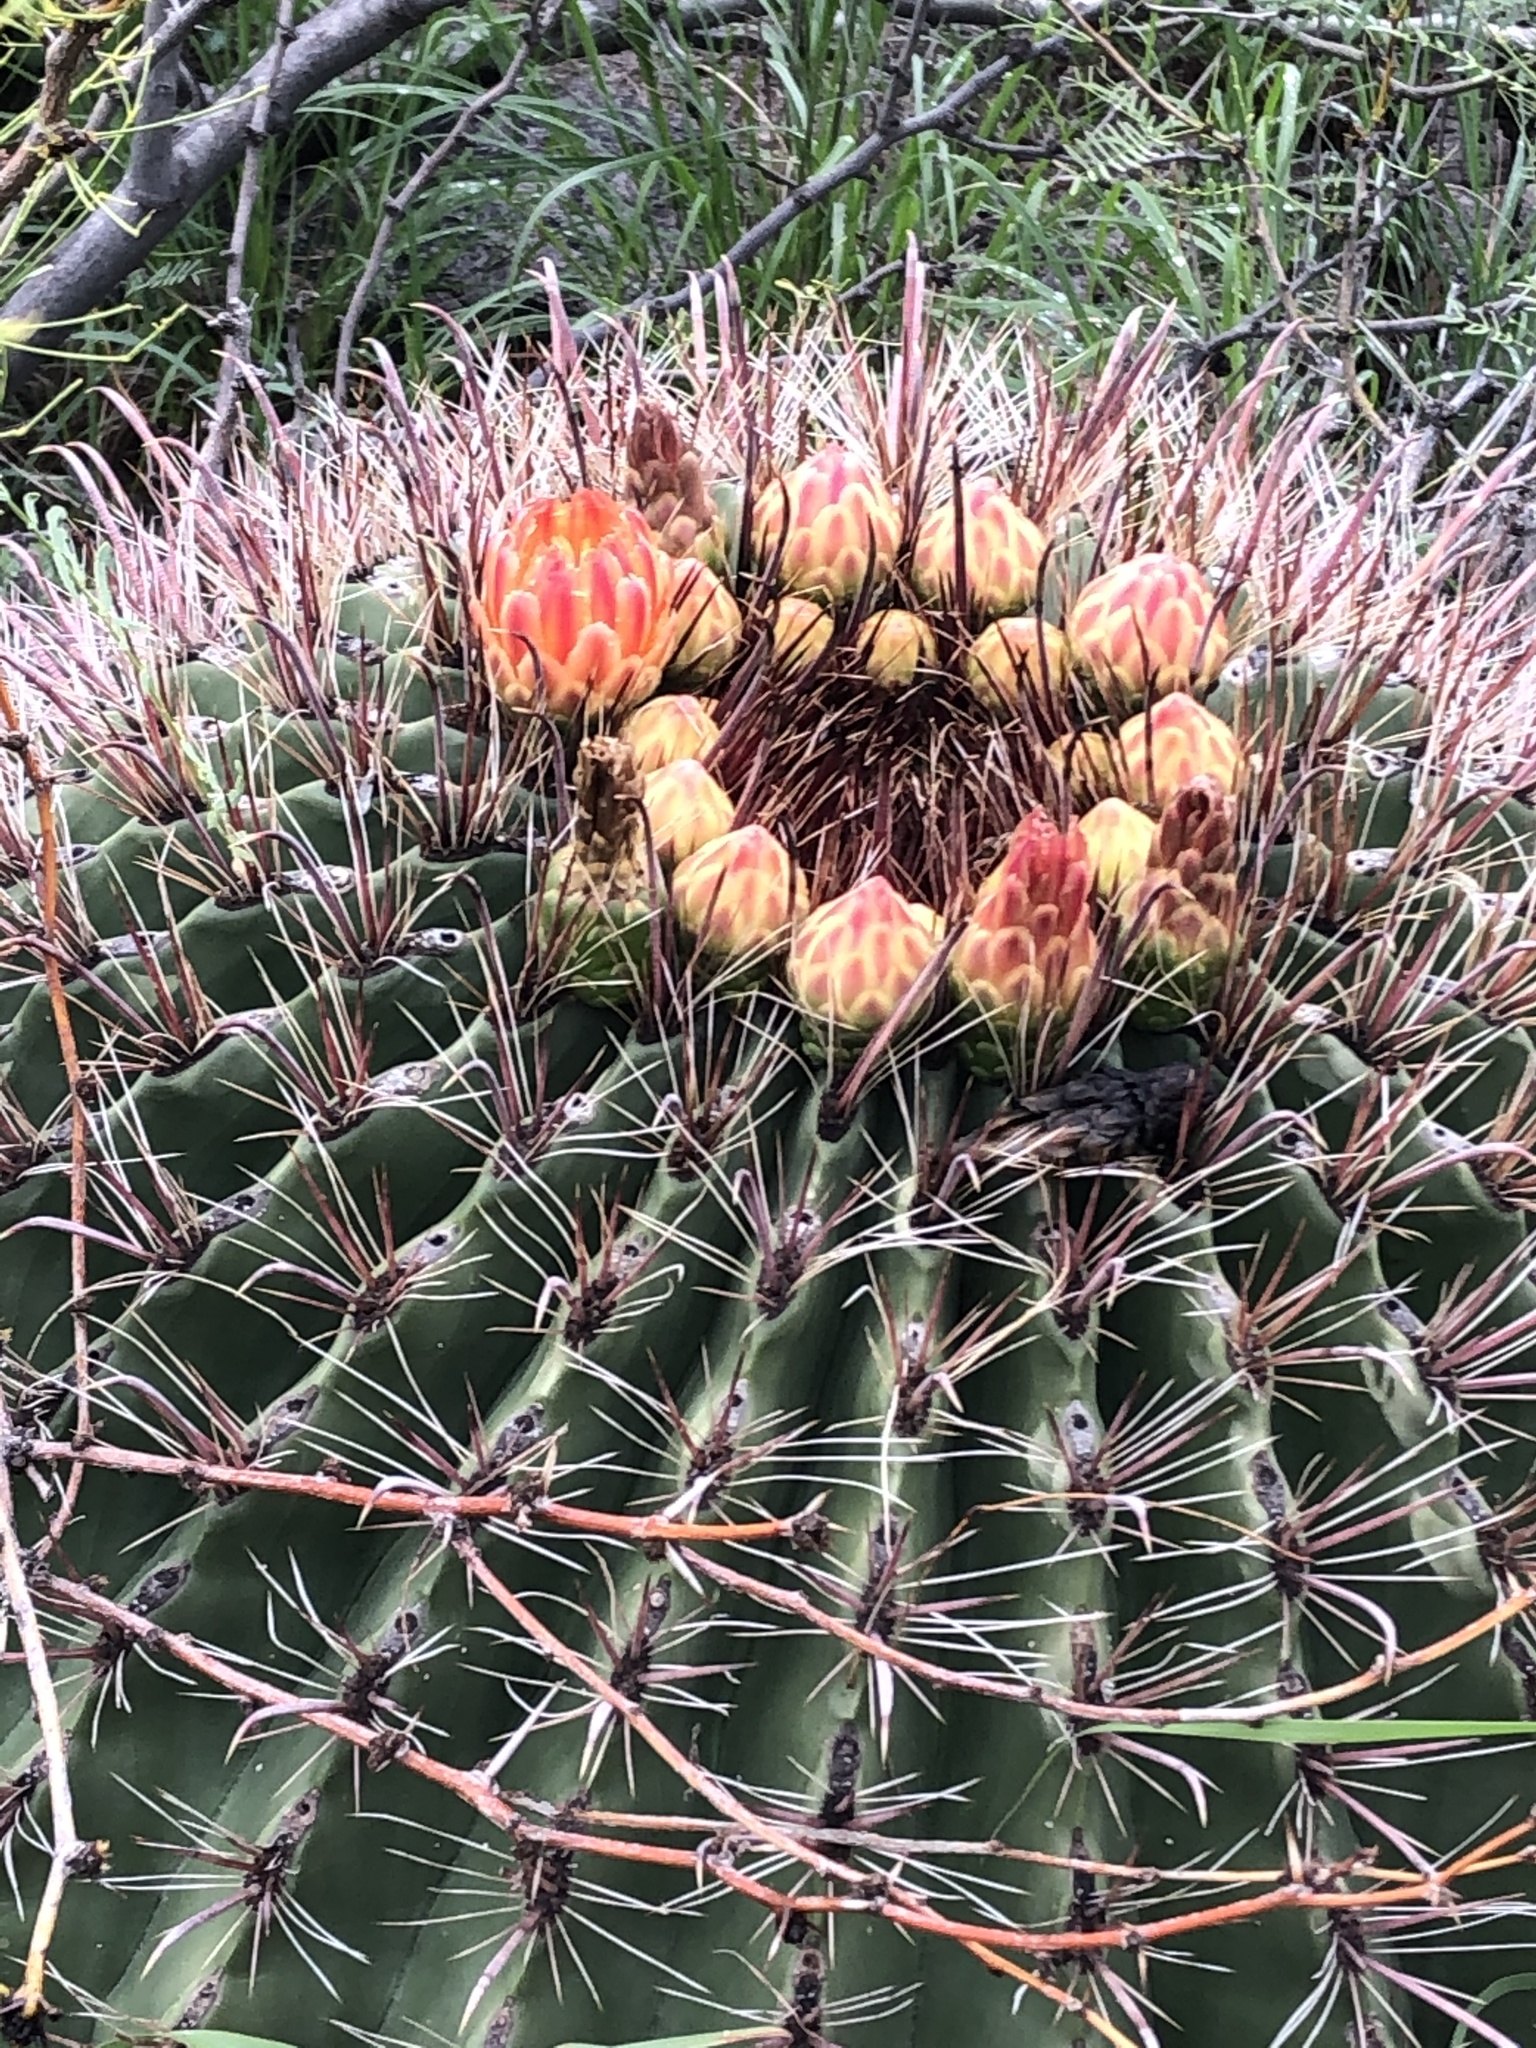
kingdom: Plantae
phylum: Tracheophyta
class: Magnoliopsida
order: Caryophyllales
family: Cactaceae
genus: Ferocactus
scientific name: Ferocactus wislizeni
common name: Candy barrel cactus
